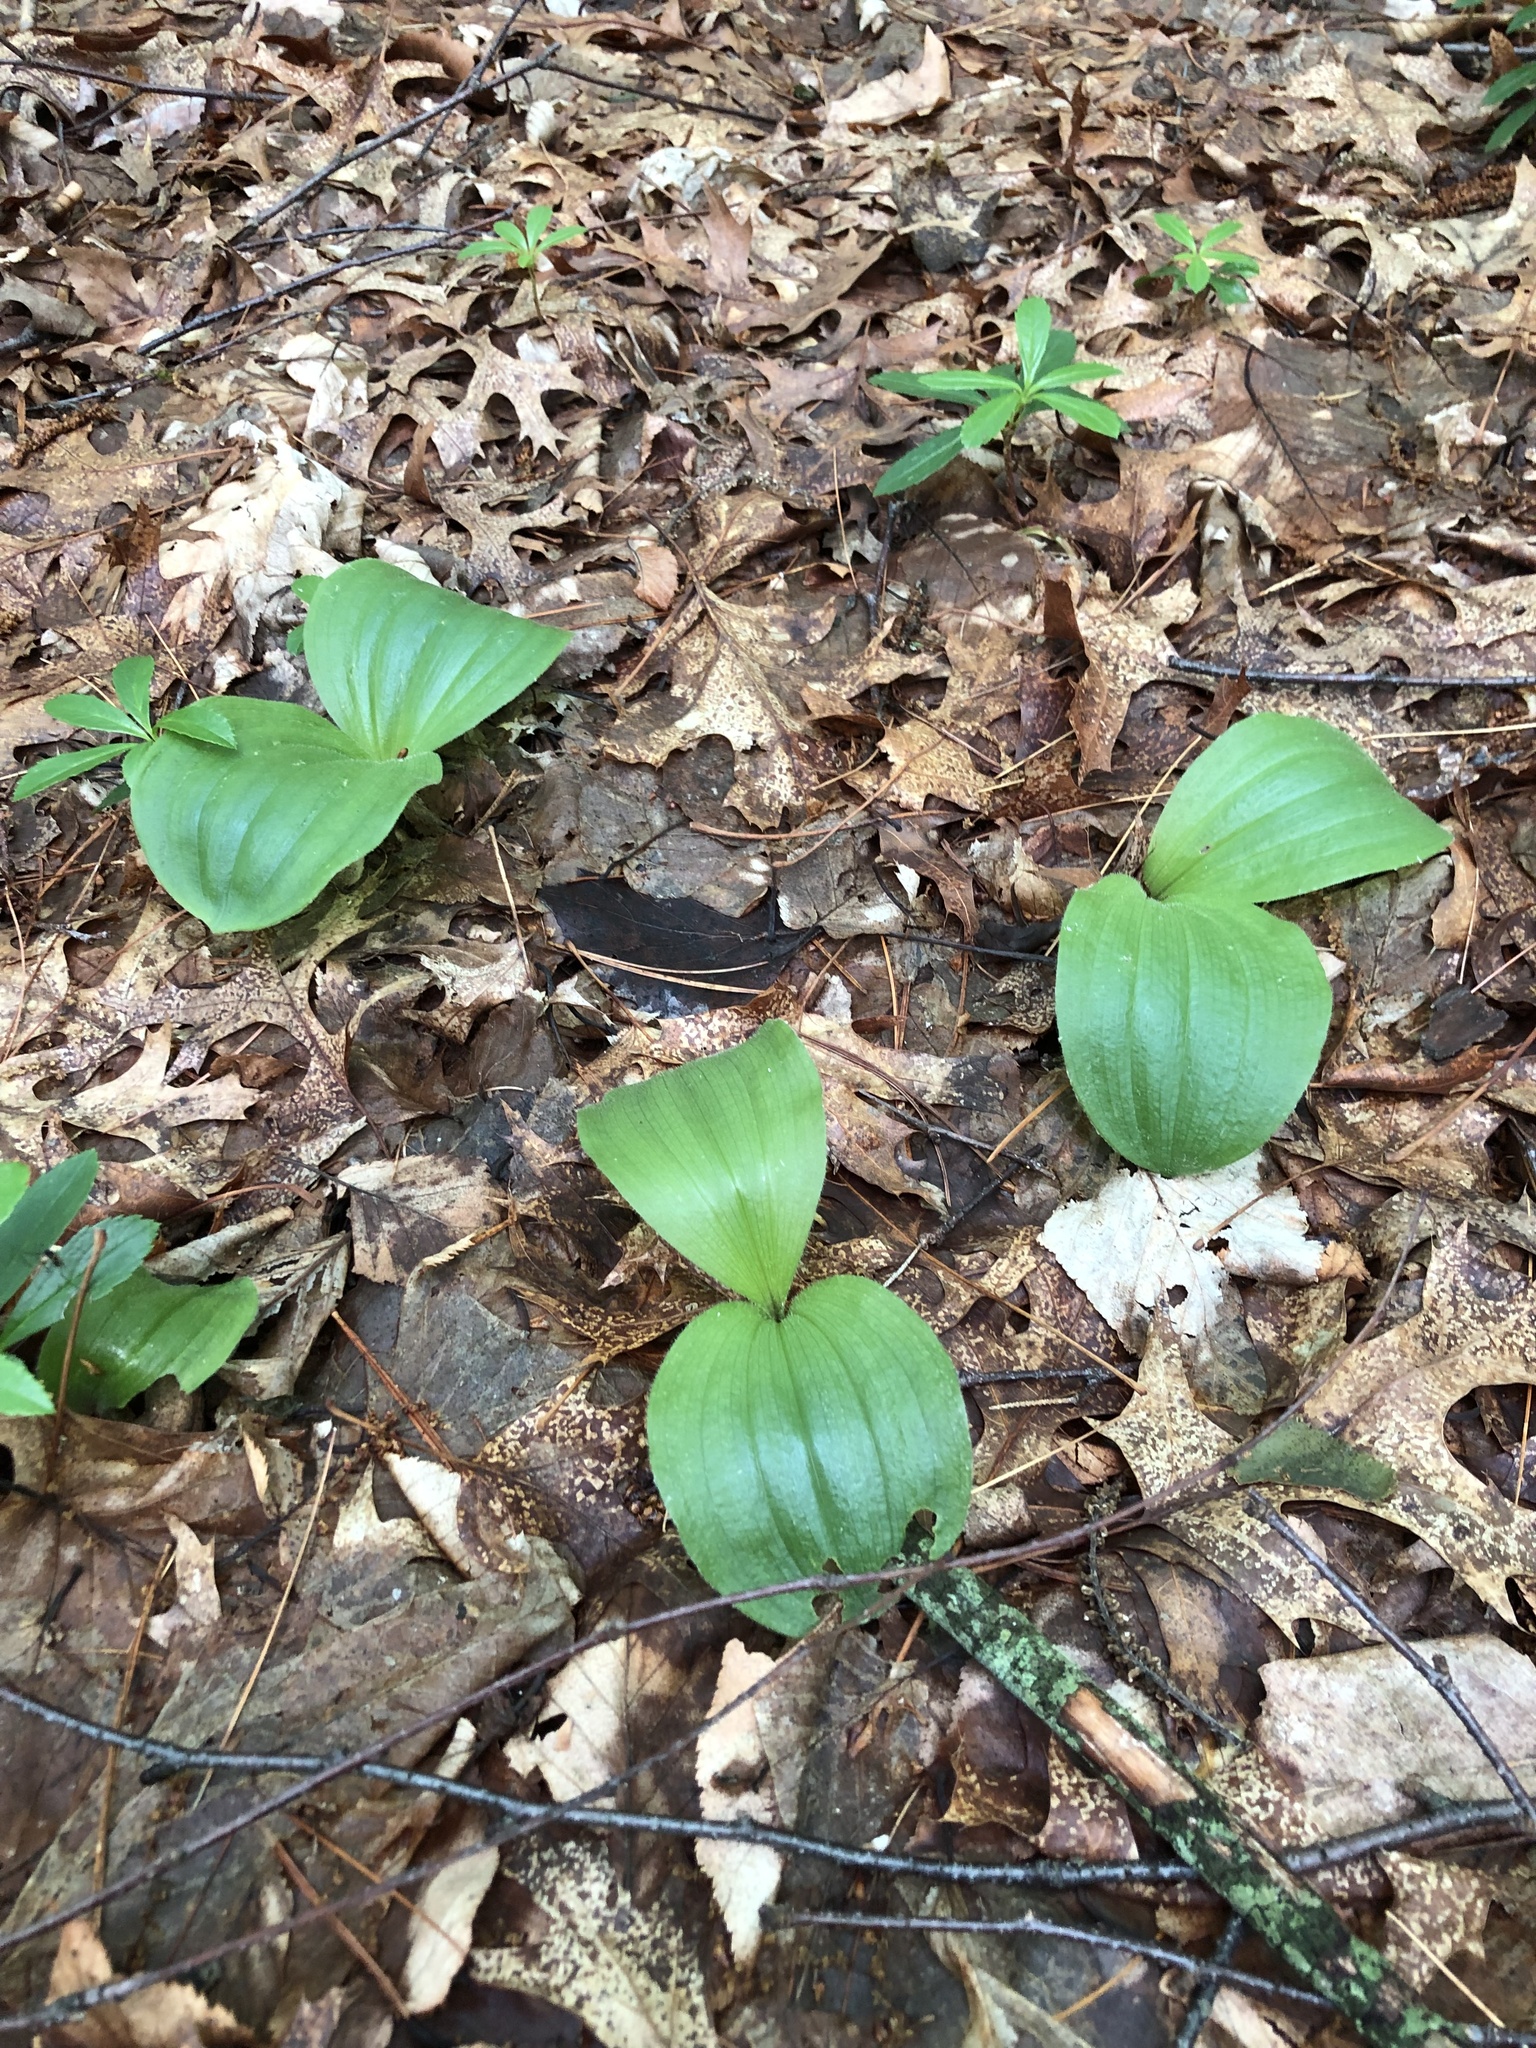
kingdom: Plantae
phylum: Tracheophyta
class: Liliopsida
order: Asparagales
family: Orchidaceae
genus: Cypripedium
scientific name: Cypripedium acaule
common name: Pink lady's-slipper
